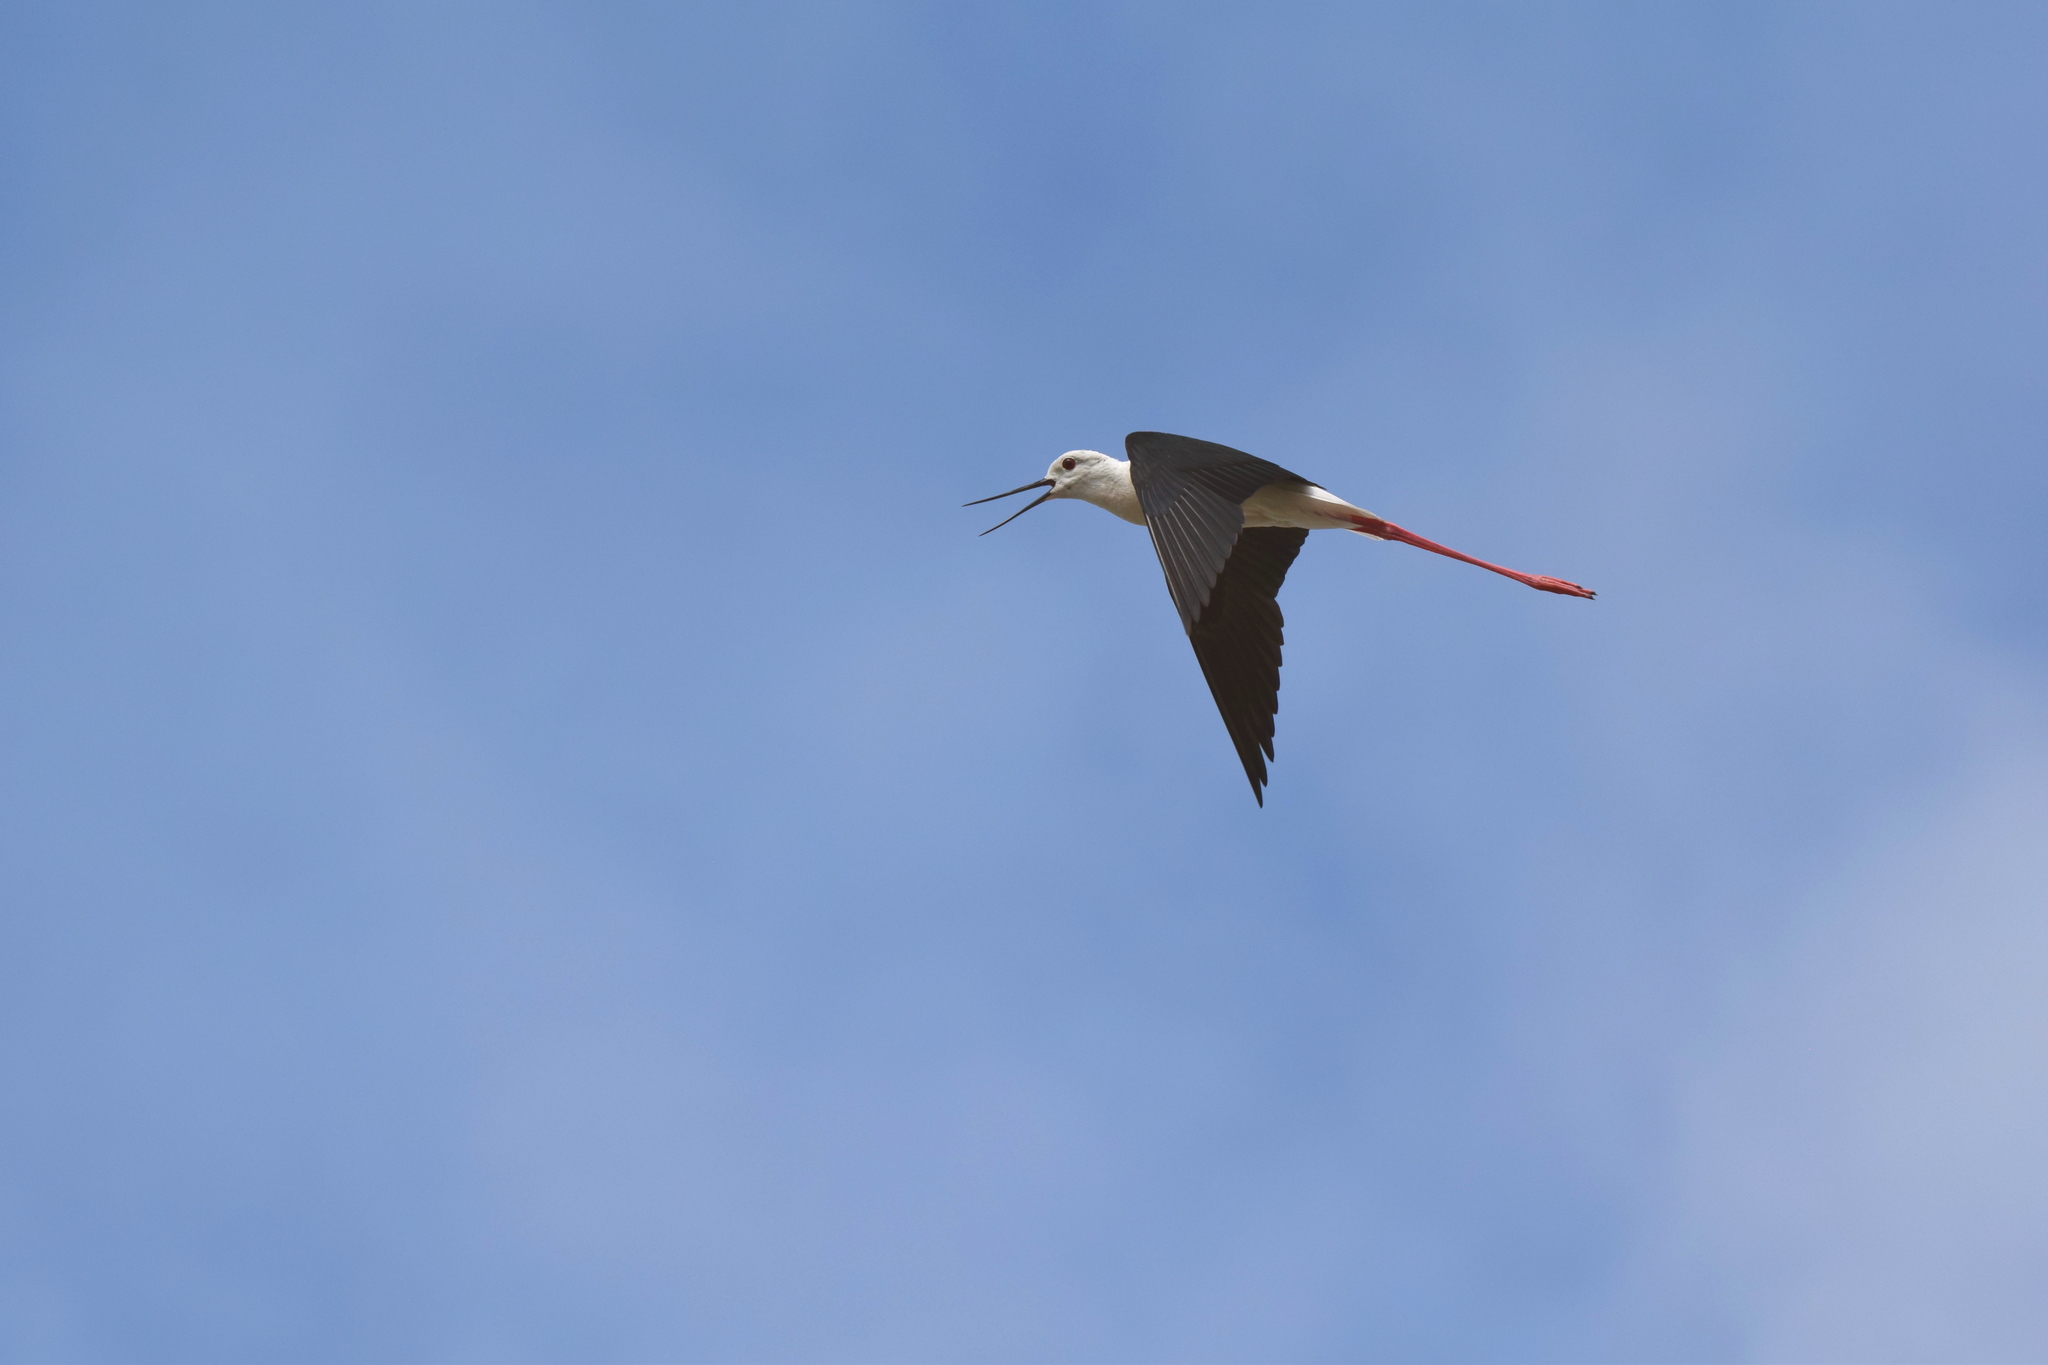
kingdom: Animalia
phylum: Chordata
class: Aves
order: Charadriiformes
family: Recurvirostridae
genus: Himantopus
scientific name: Himantopus himantopus
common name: Black-winged stilt
